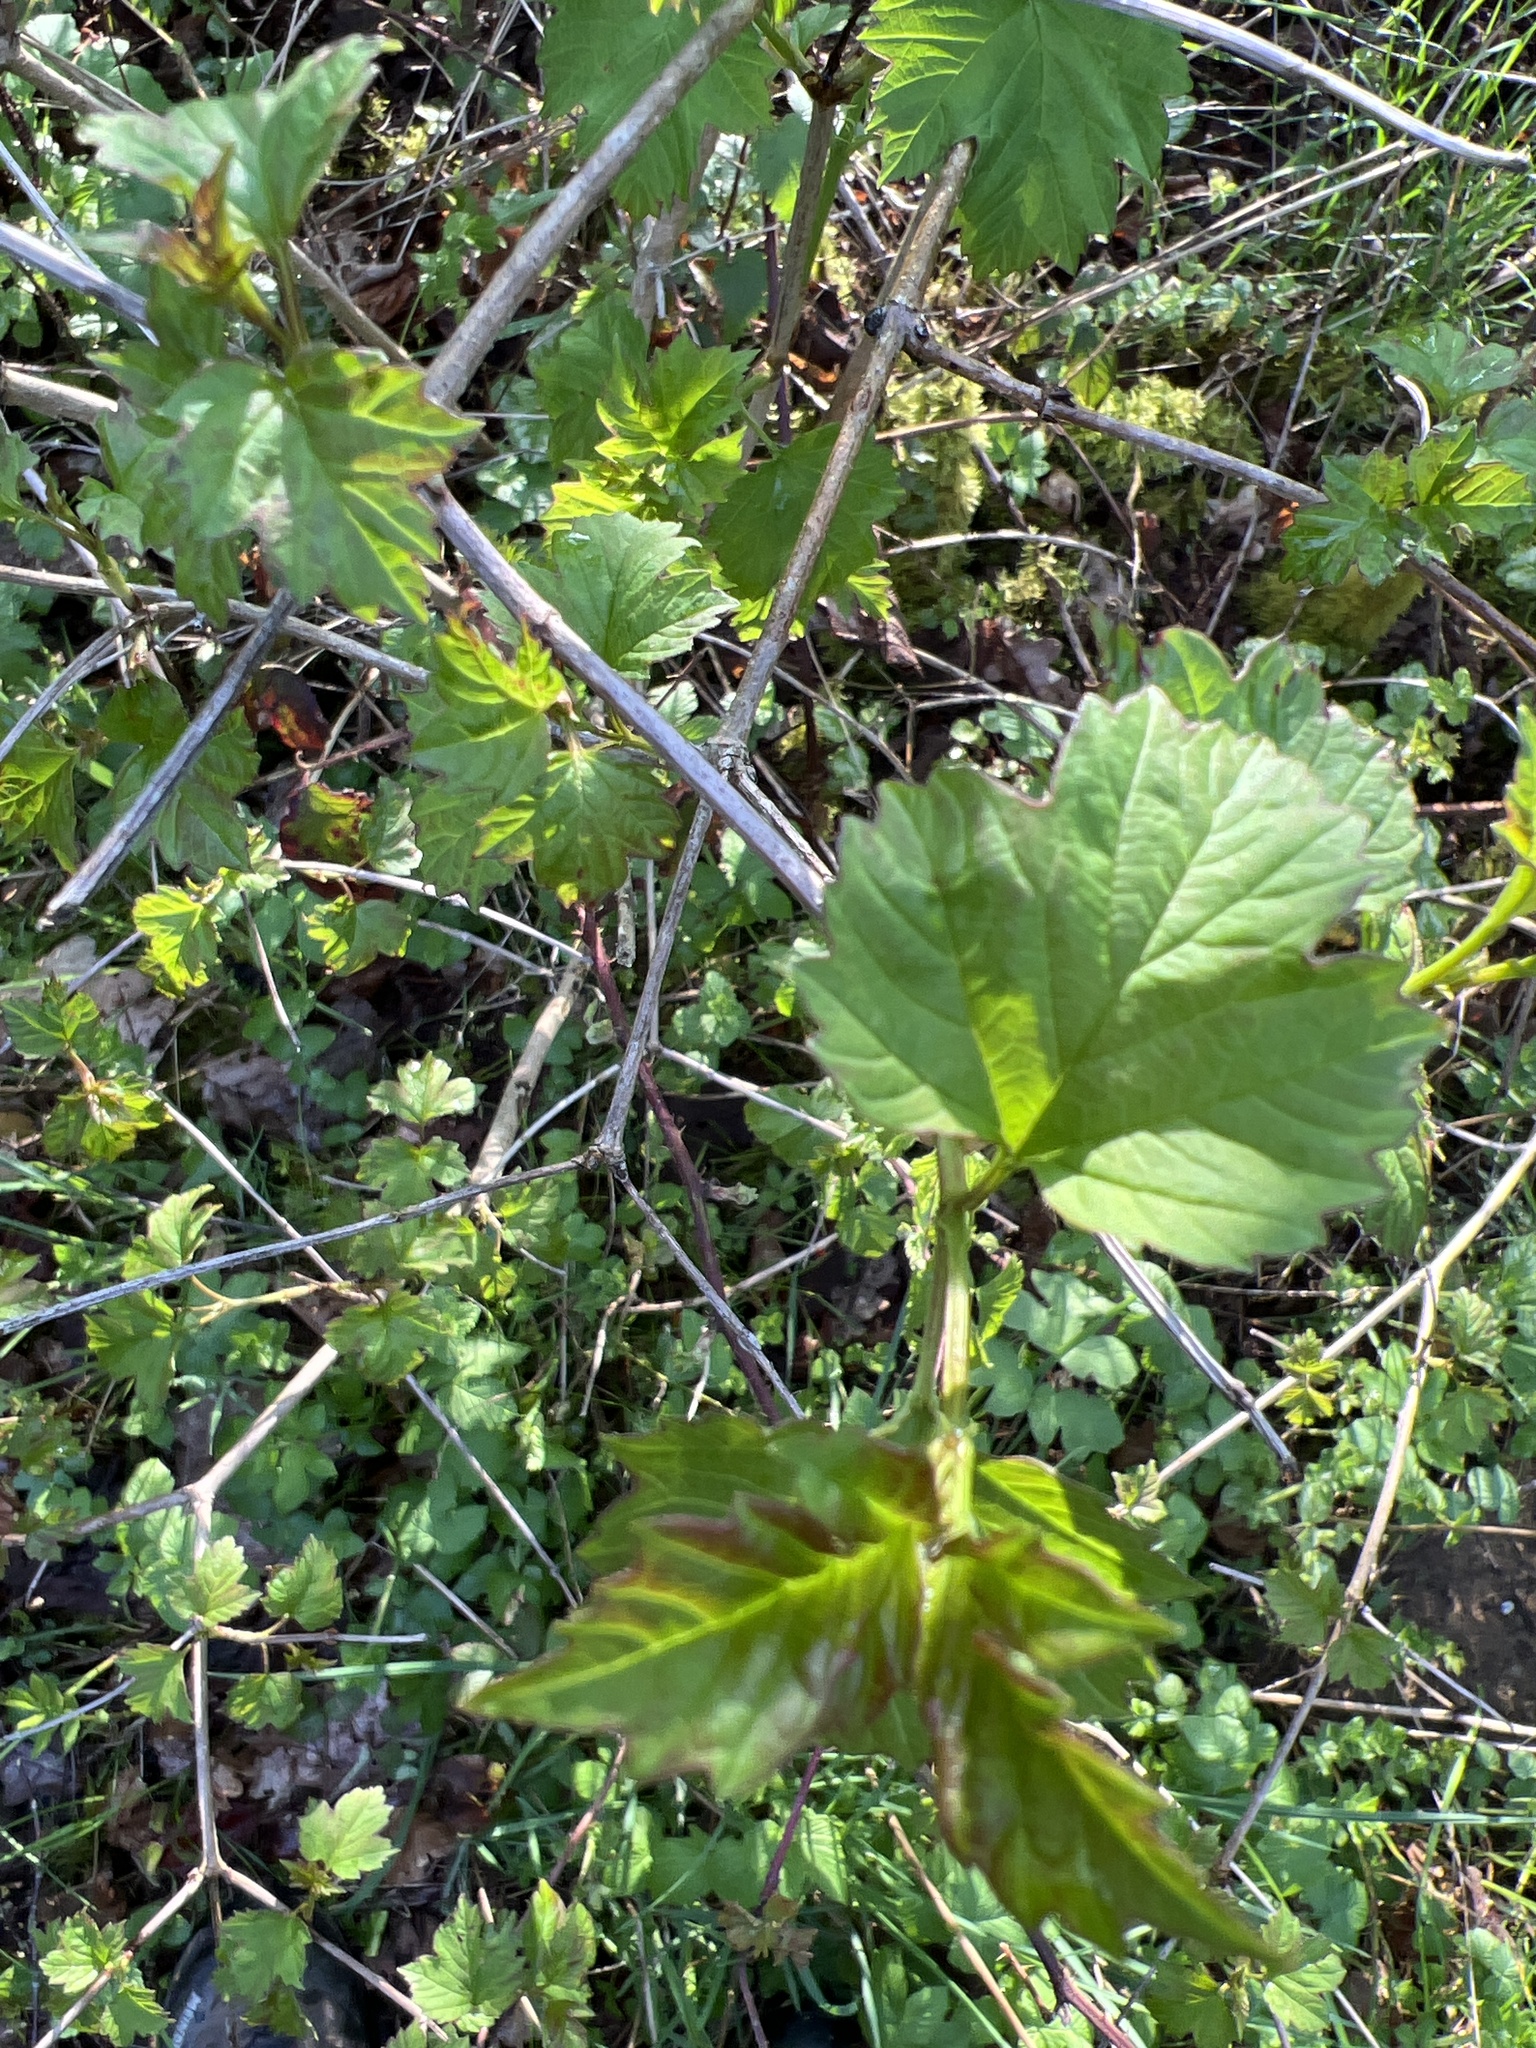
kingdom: Plantae
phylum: Tracheophyta
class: Magnoliopsida
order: Dipsacales
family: Viburnaceae
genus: Viburnum
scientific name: Viburnum opulus
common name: Guelder-rose
